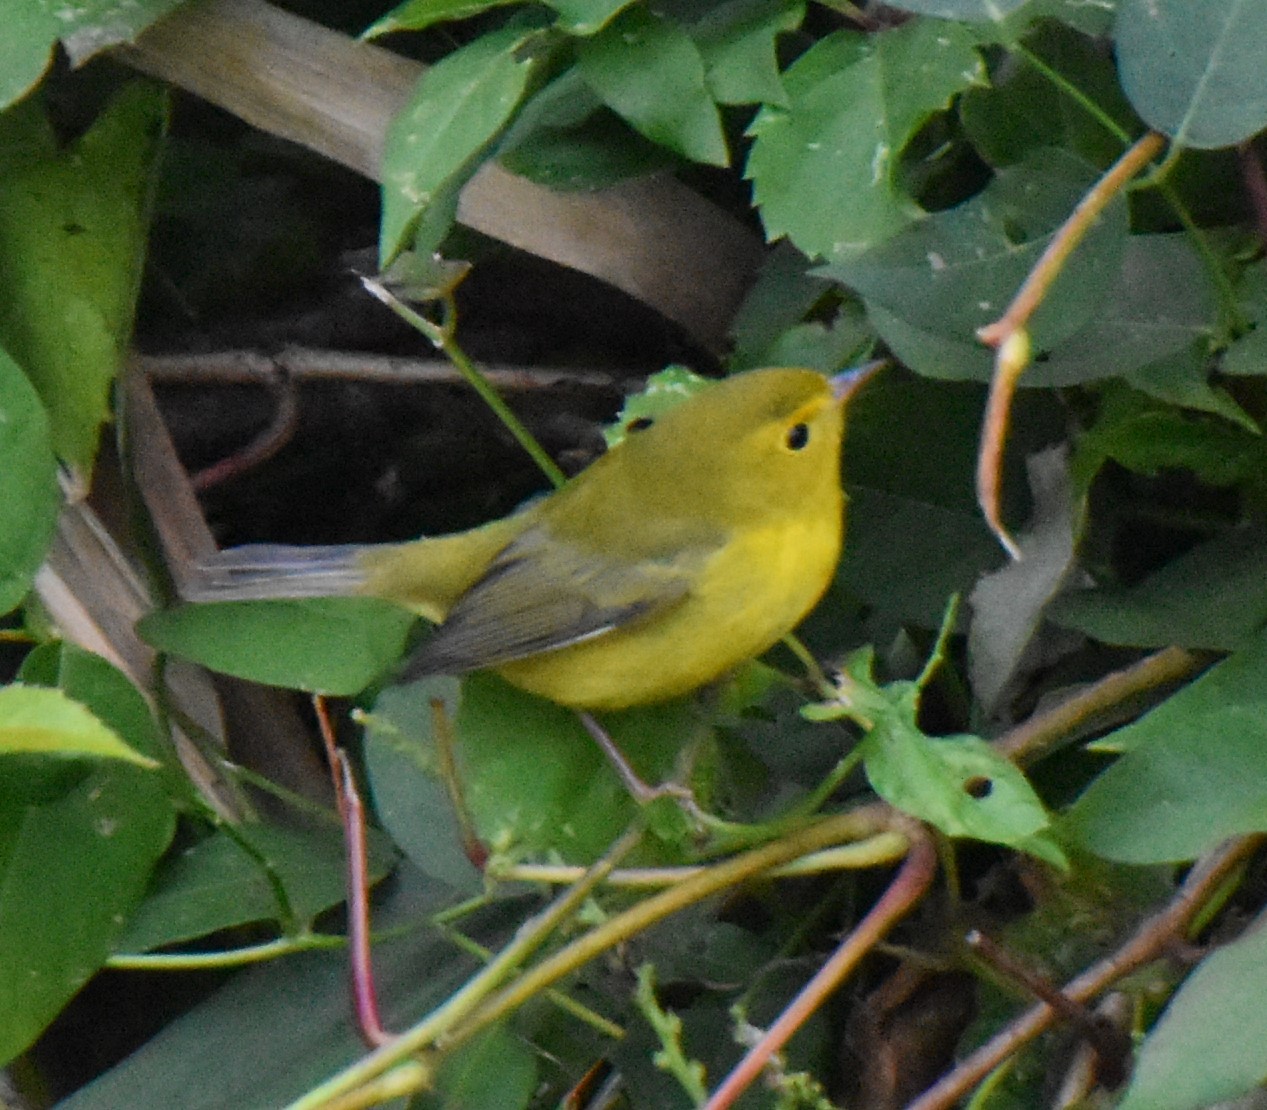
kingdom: Animalia
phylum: Chordata
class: Aves
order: Passeriformes
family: Parulidae
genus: Cardellina
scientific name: Cardellina pusilla
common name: Wilson's warbler
